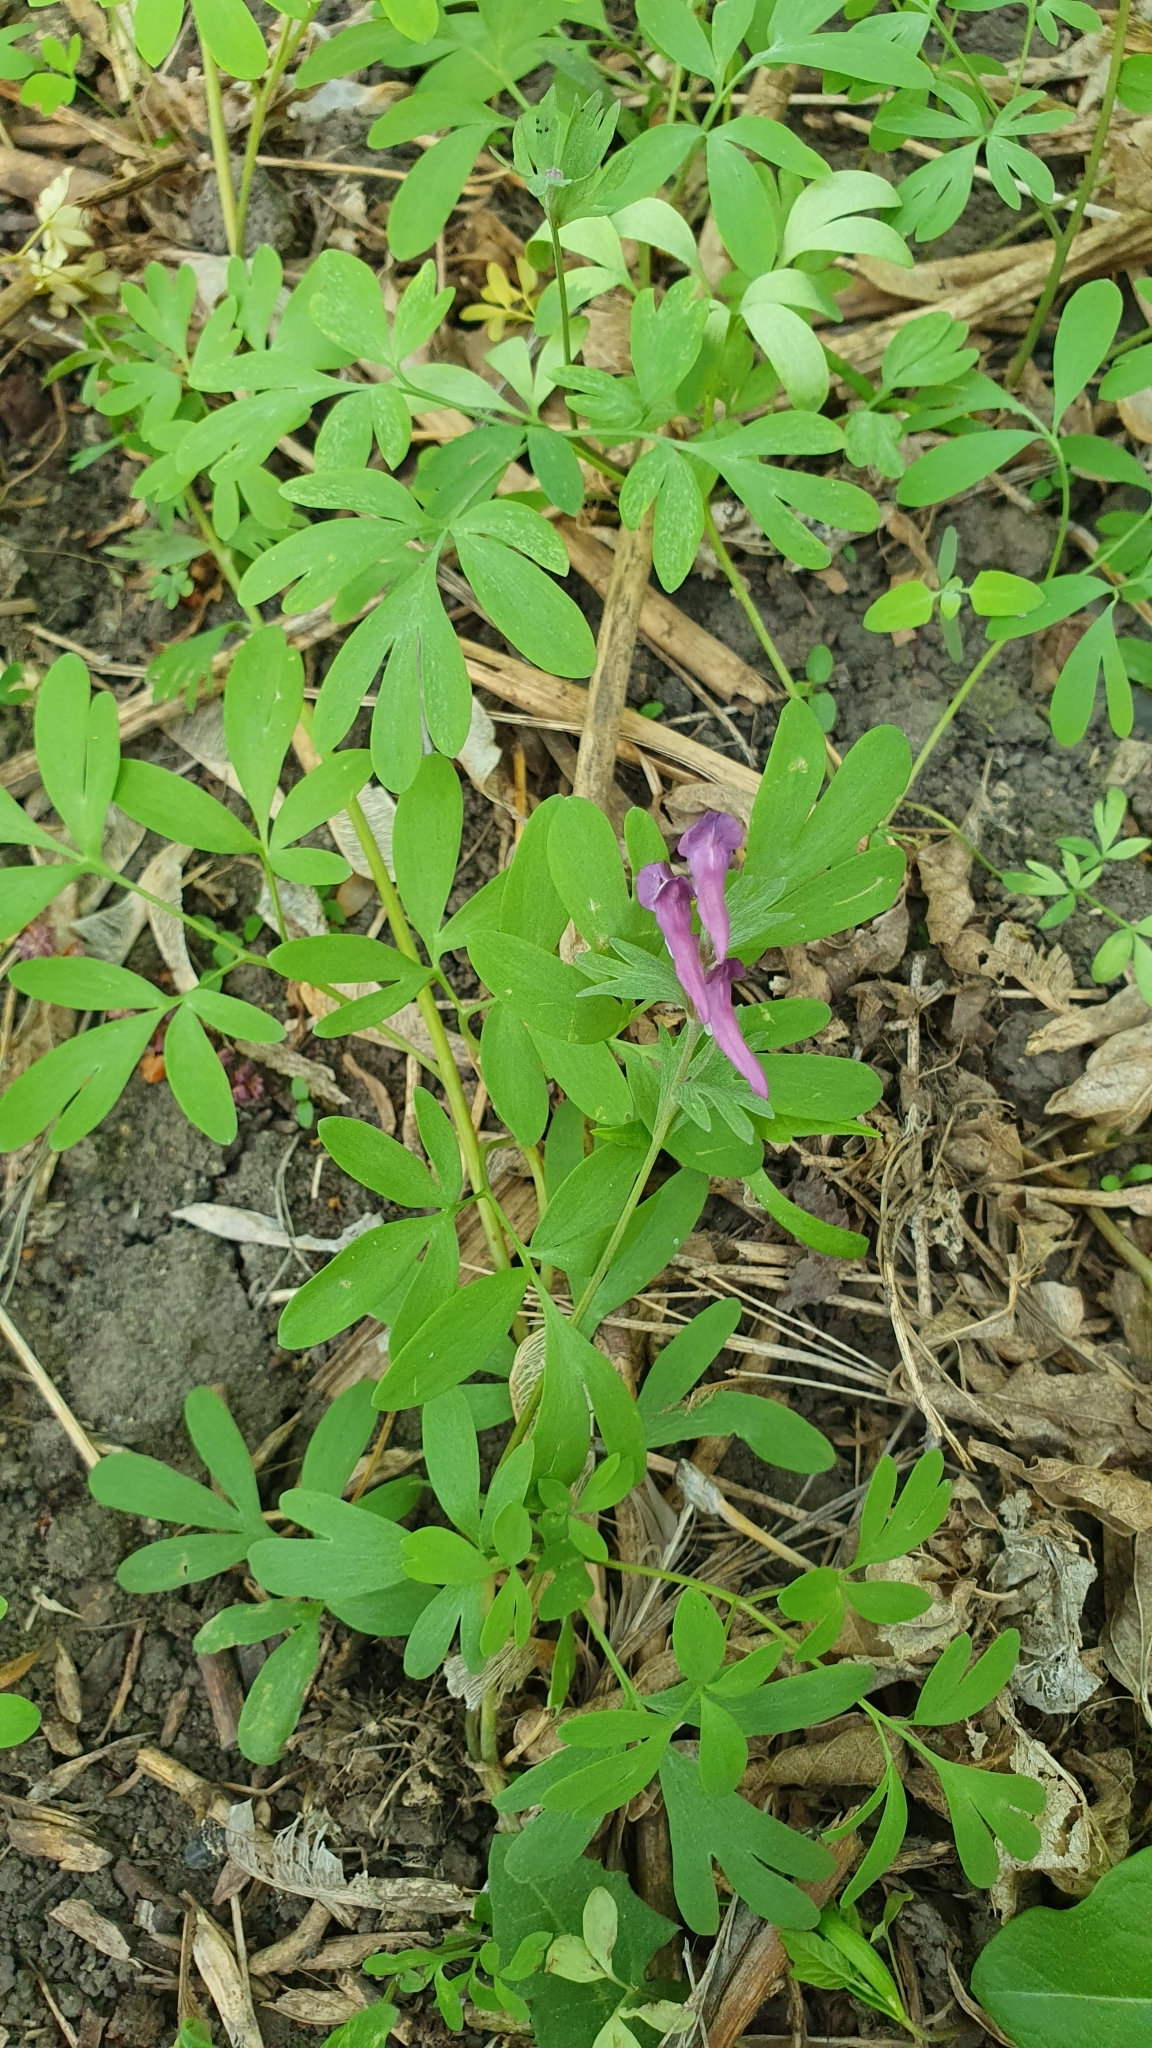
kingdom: Plantae
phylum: Tracheophyta
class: Magnoliopsida
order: Ranunculales
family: Papaveraceae
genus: Corydalis
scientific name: Corydalis solida
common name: Bird-in-a-bush
